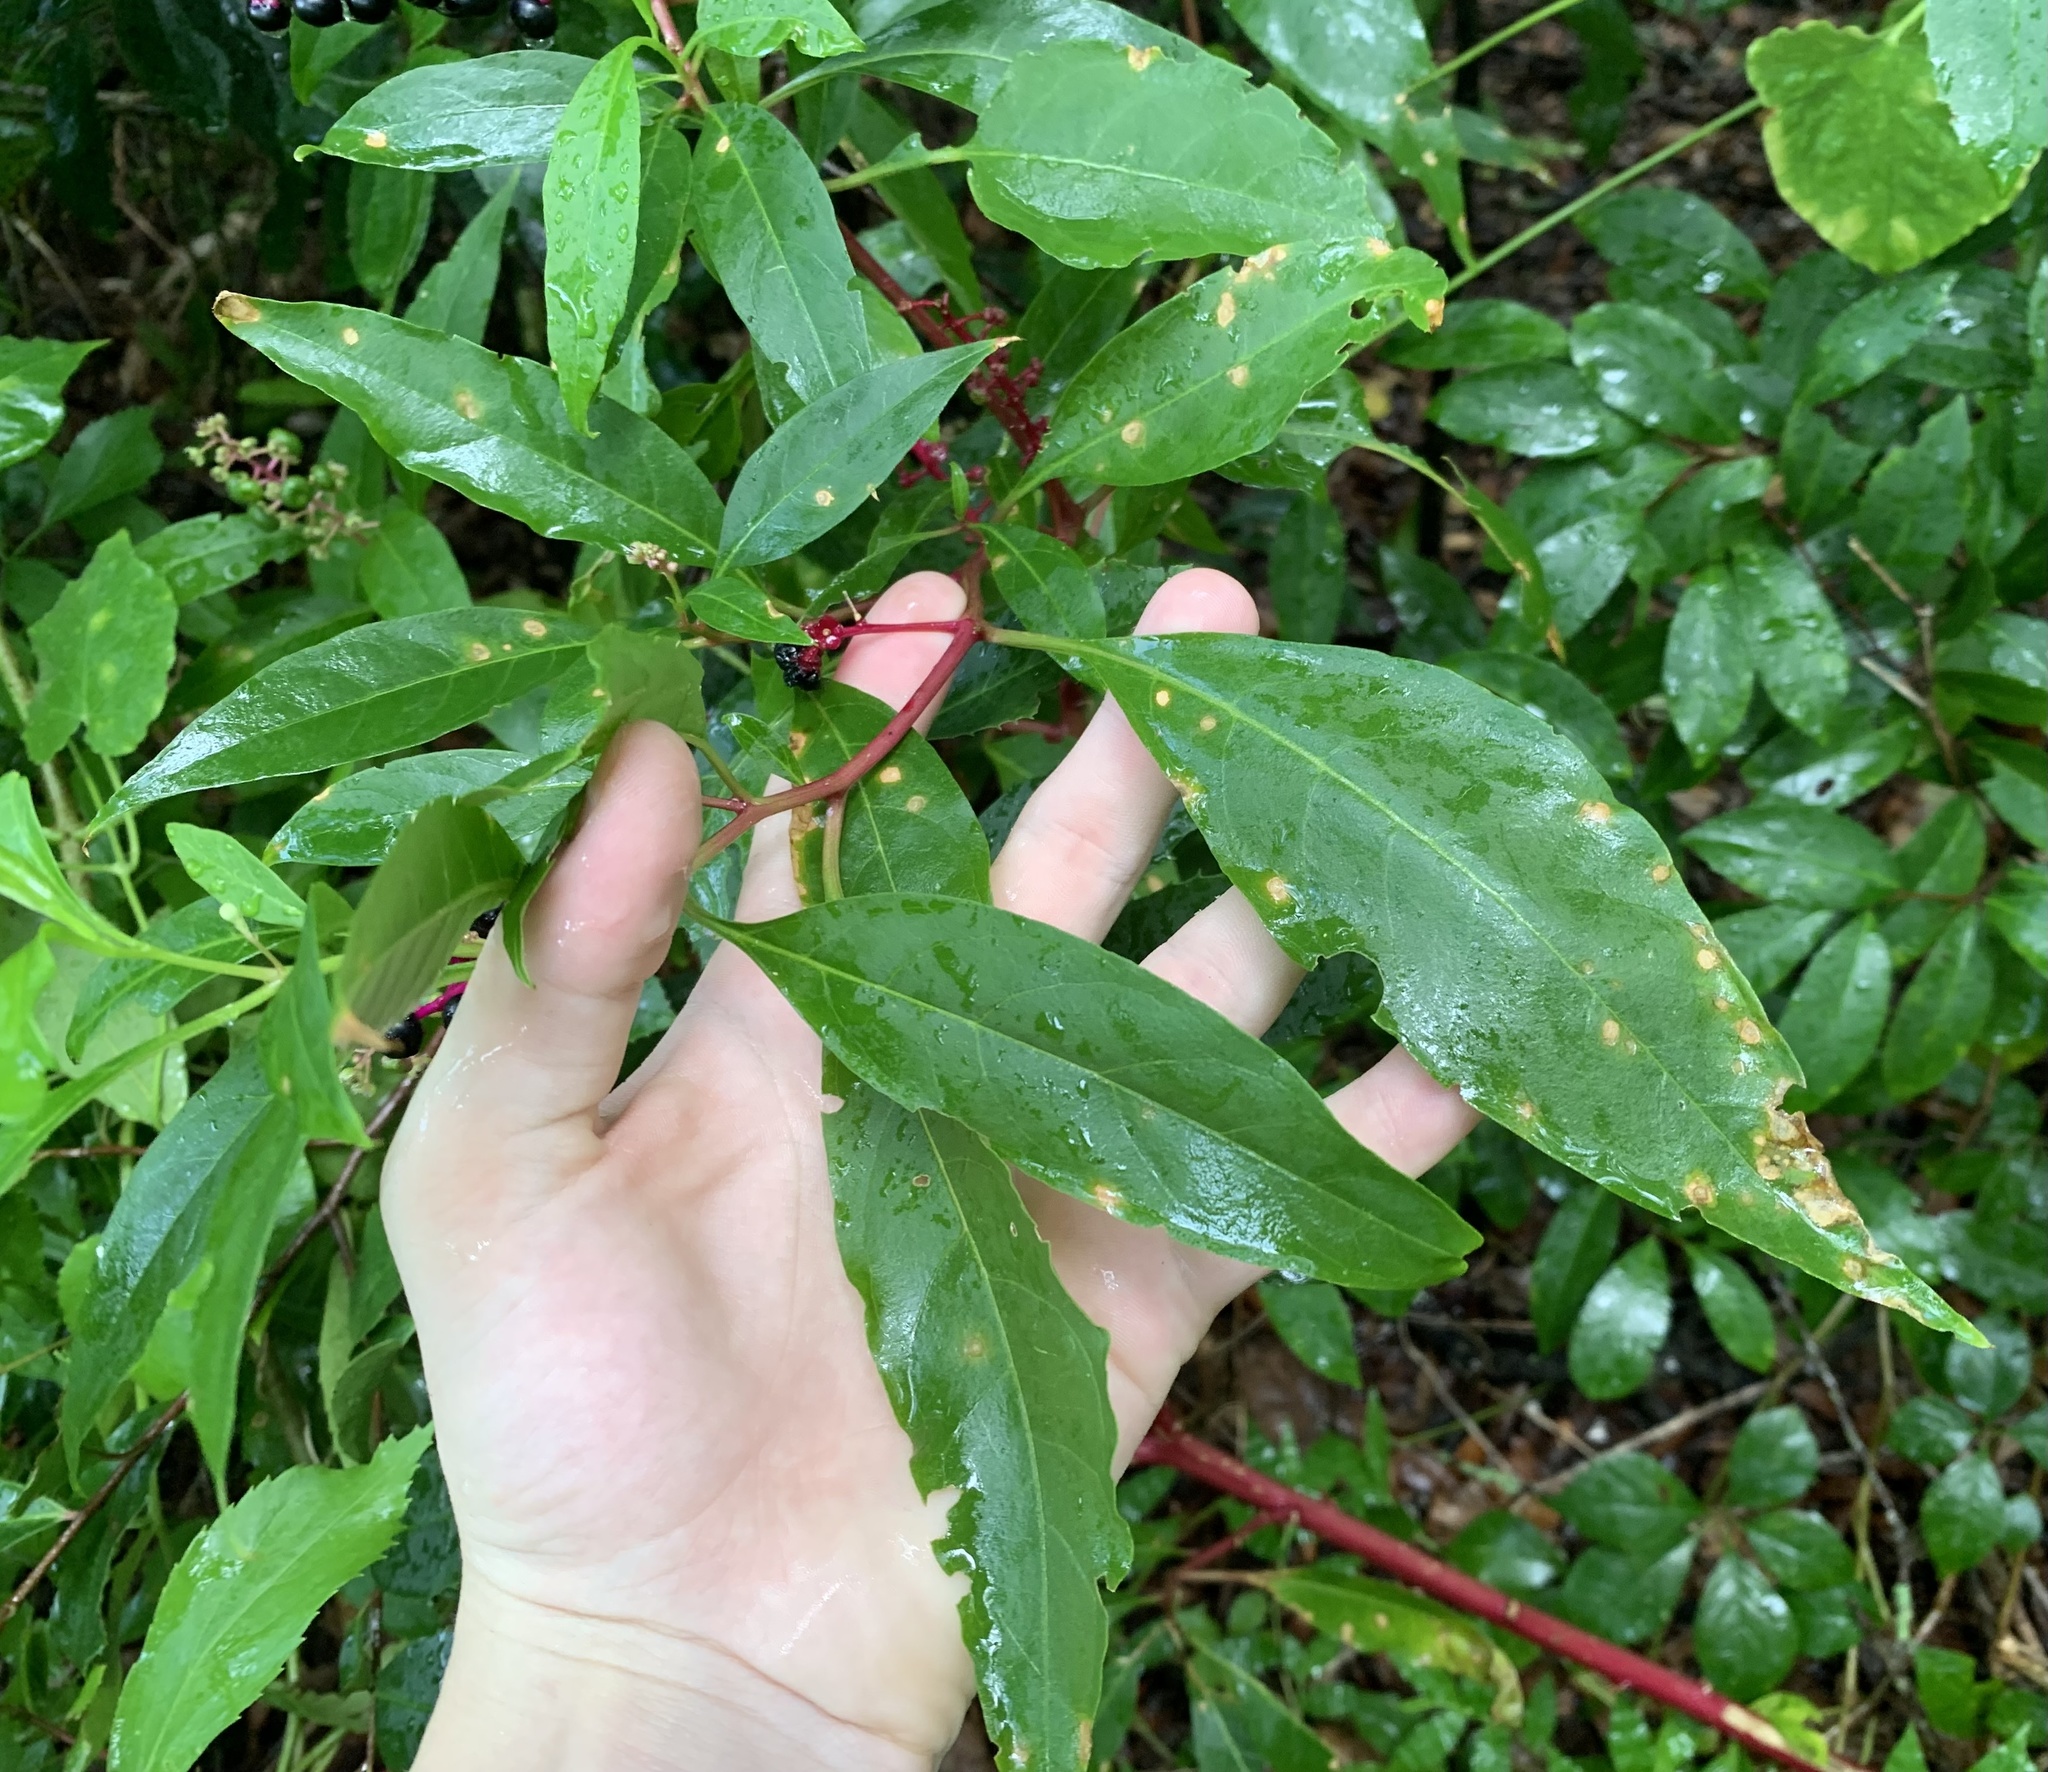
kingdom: Plantae
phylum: Tracheophyta
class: Magnoliopsida
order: Caryophyllales
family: Phytolaccaceae
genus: Phytolacca
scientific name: Phytolacca americana
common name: American pokeweed
